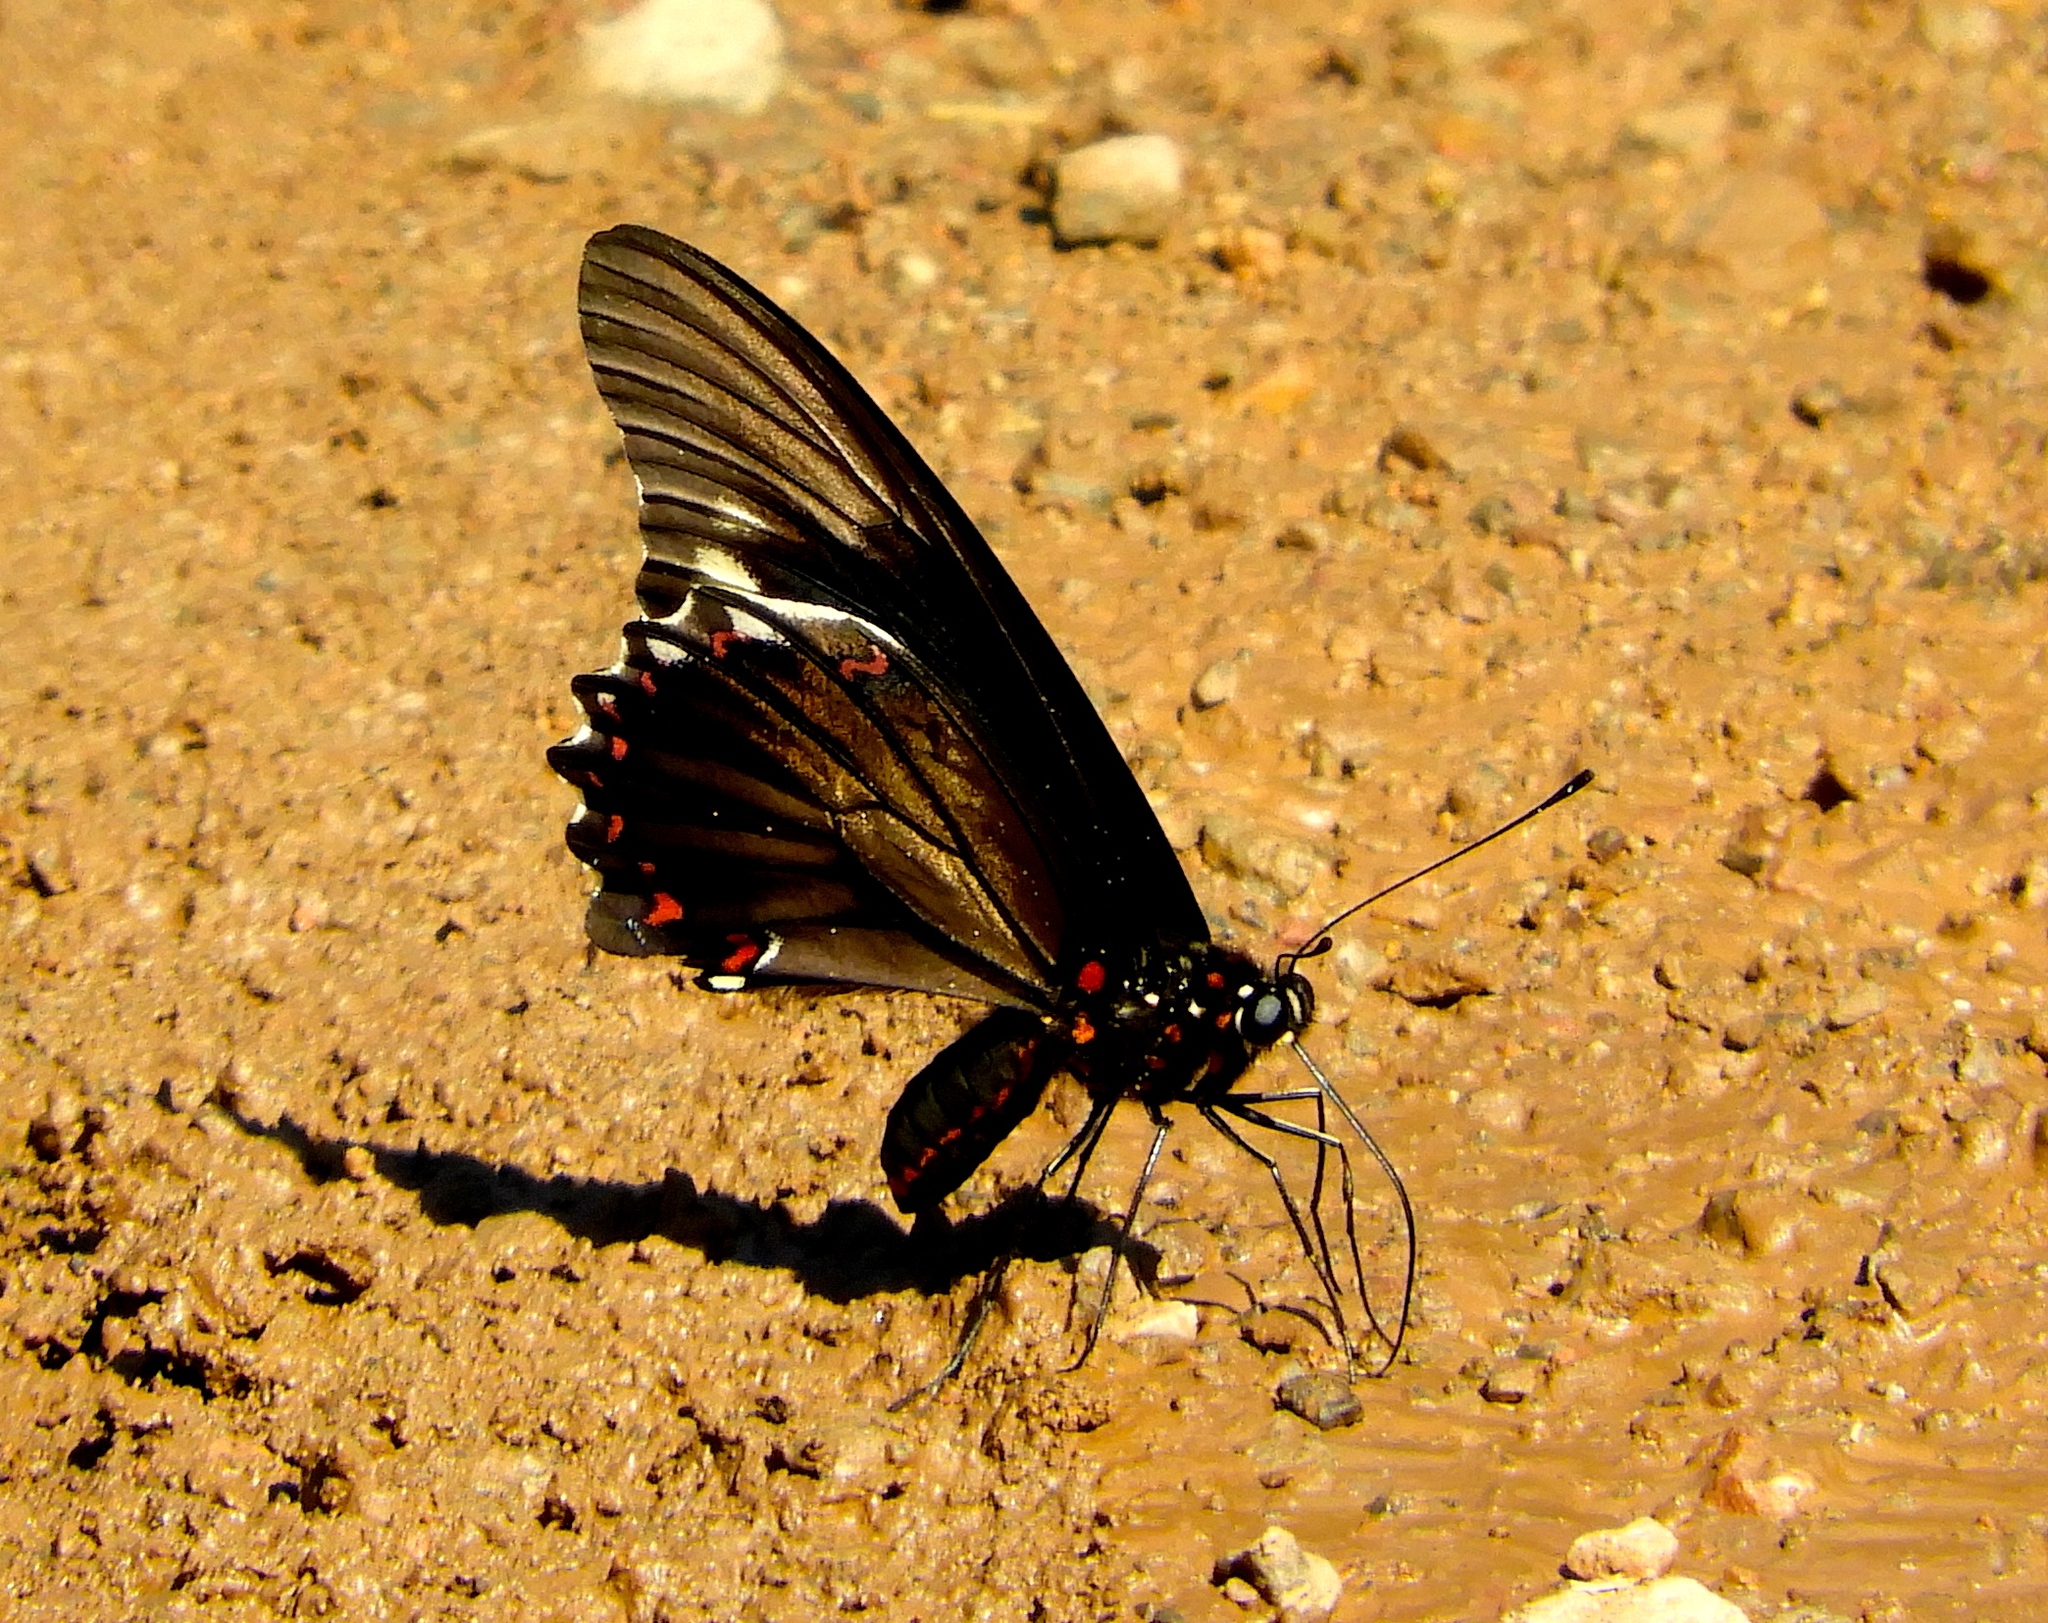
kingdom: Animalia
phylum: Arthropoda
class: Insecta
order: Lepidoptera
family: Papilionidae
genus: Battus
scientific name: Battus polydamas
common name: Polydamas swallowtail
